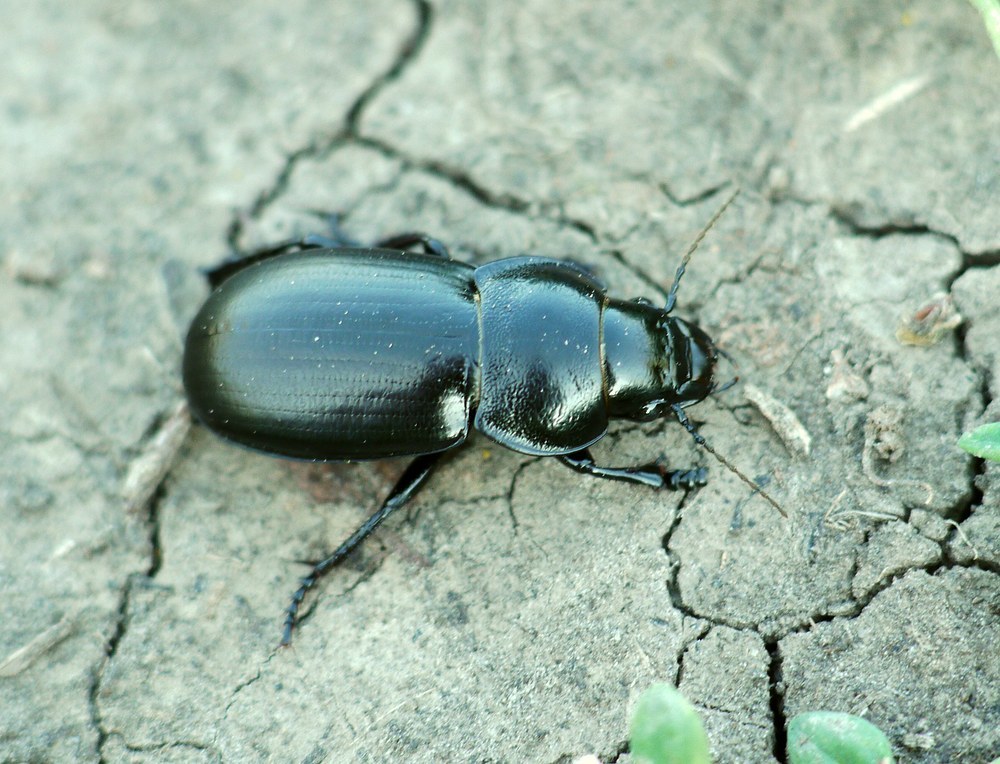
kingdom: Animalia
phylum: Arthropoda
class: Insecta
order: Coleoptera
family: Carabidae
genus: Zabrus
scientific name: Zabrus spinipes
